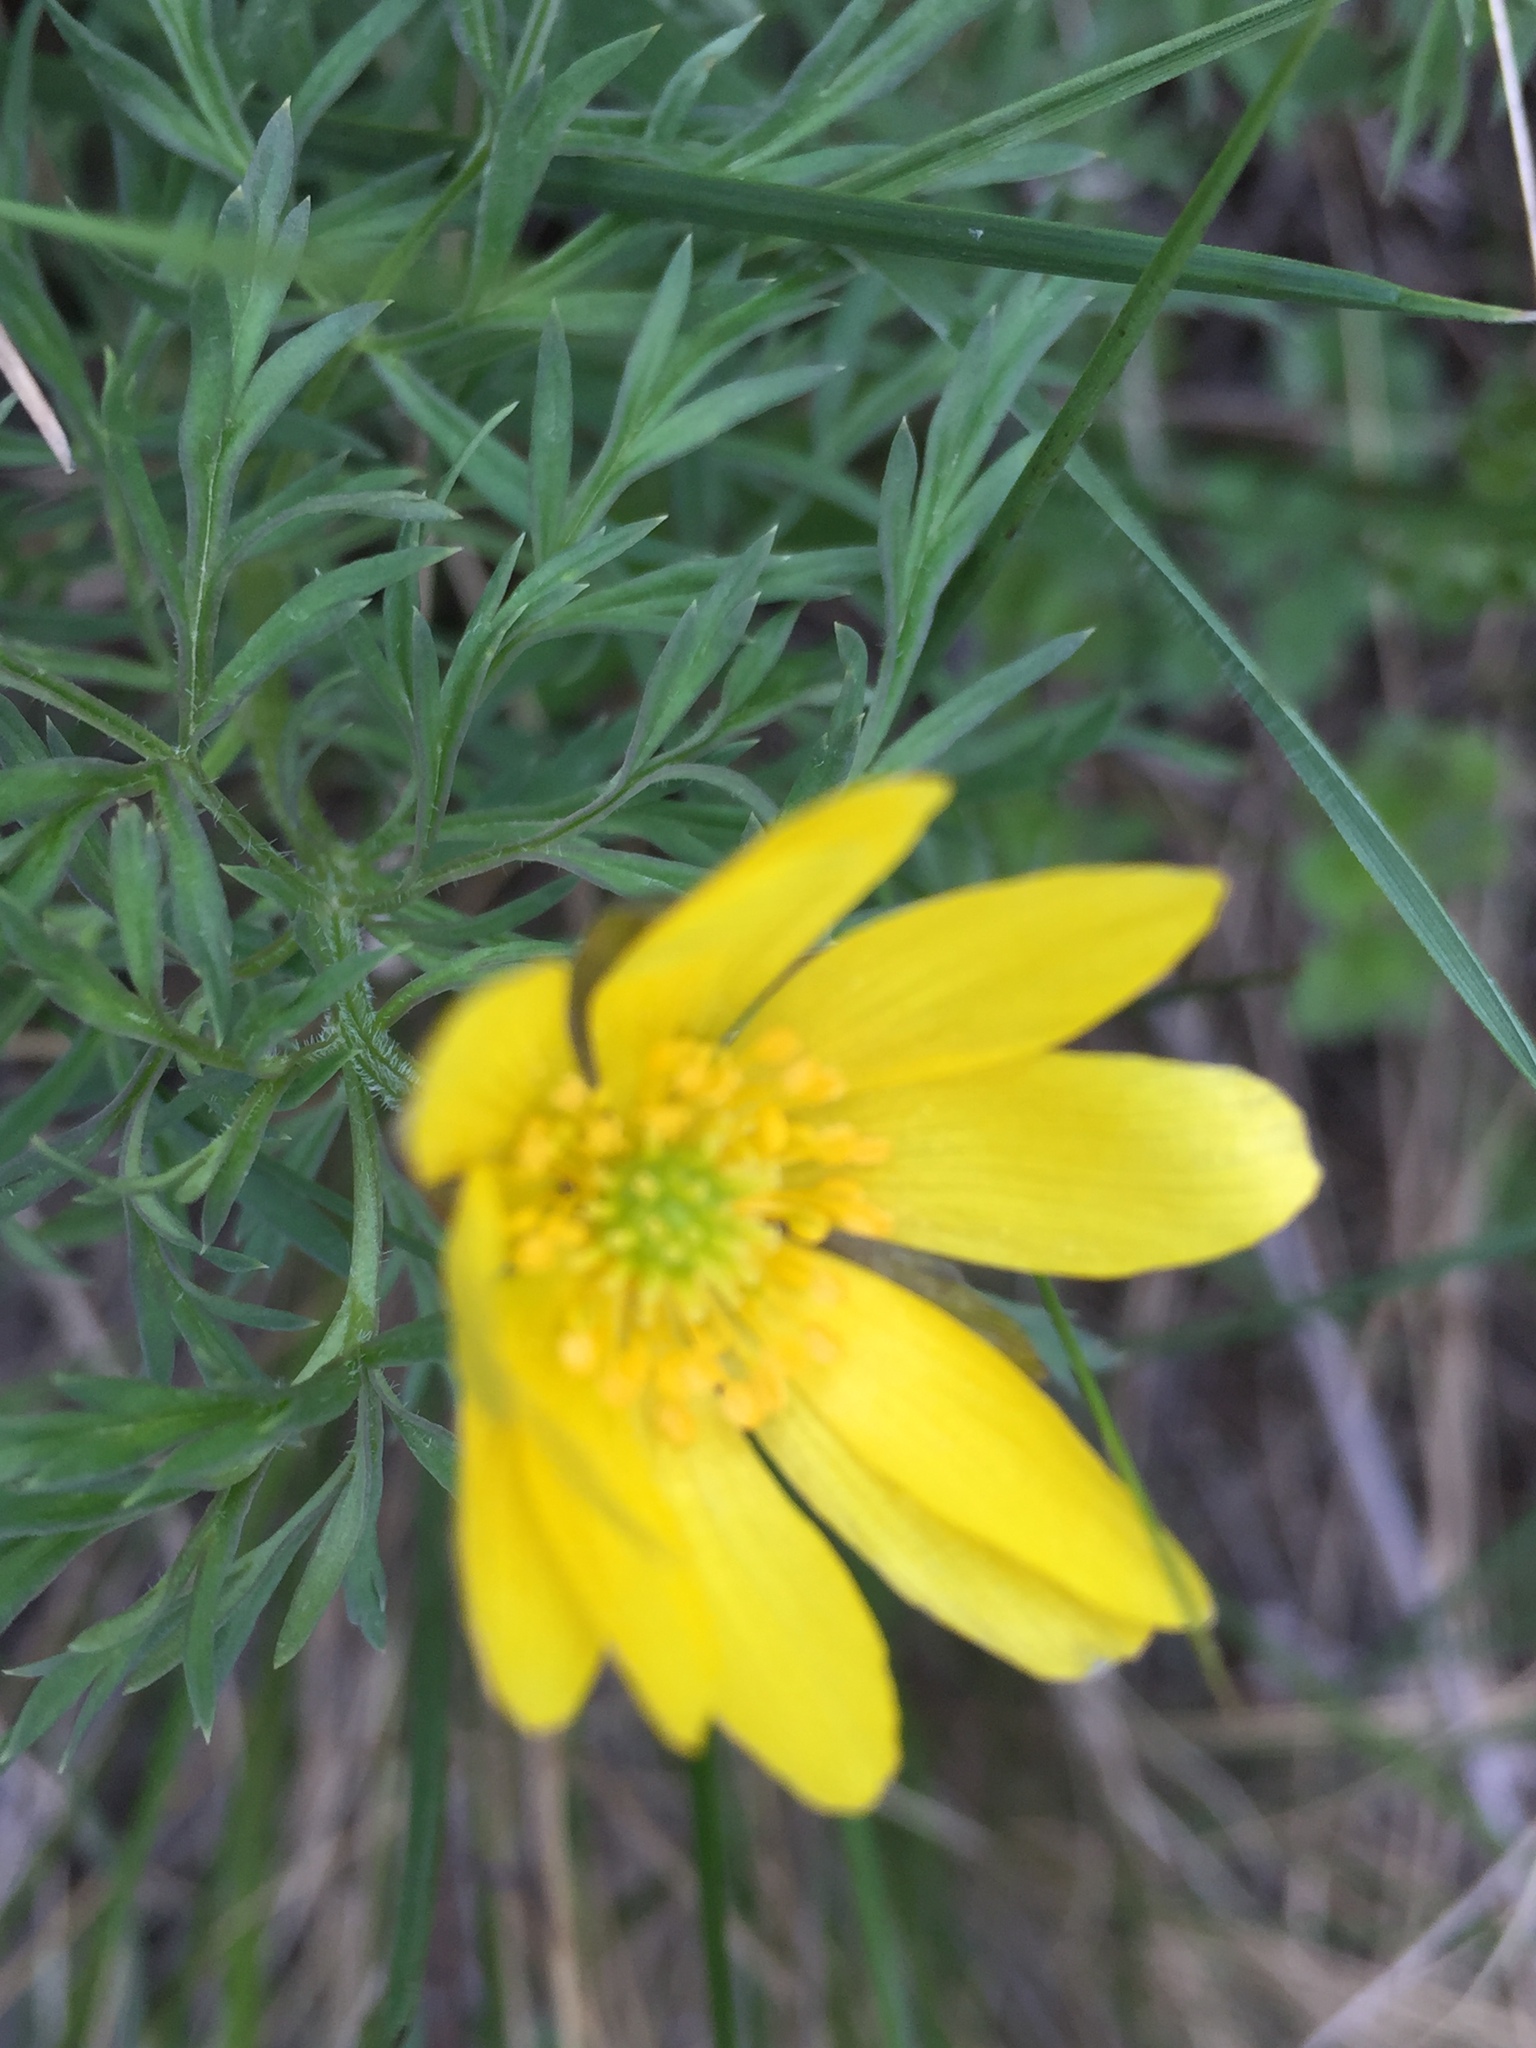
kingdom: Plantae
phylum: Tracheophyta
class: Magnoliopsida
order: Ranunculales
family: Ranunculaceae
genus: Adonis
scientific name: Adonis volgensis
